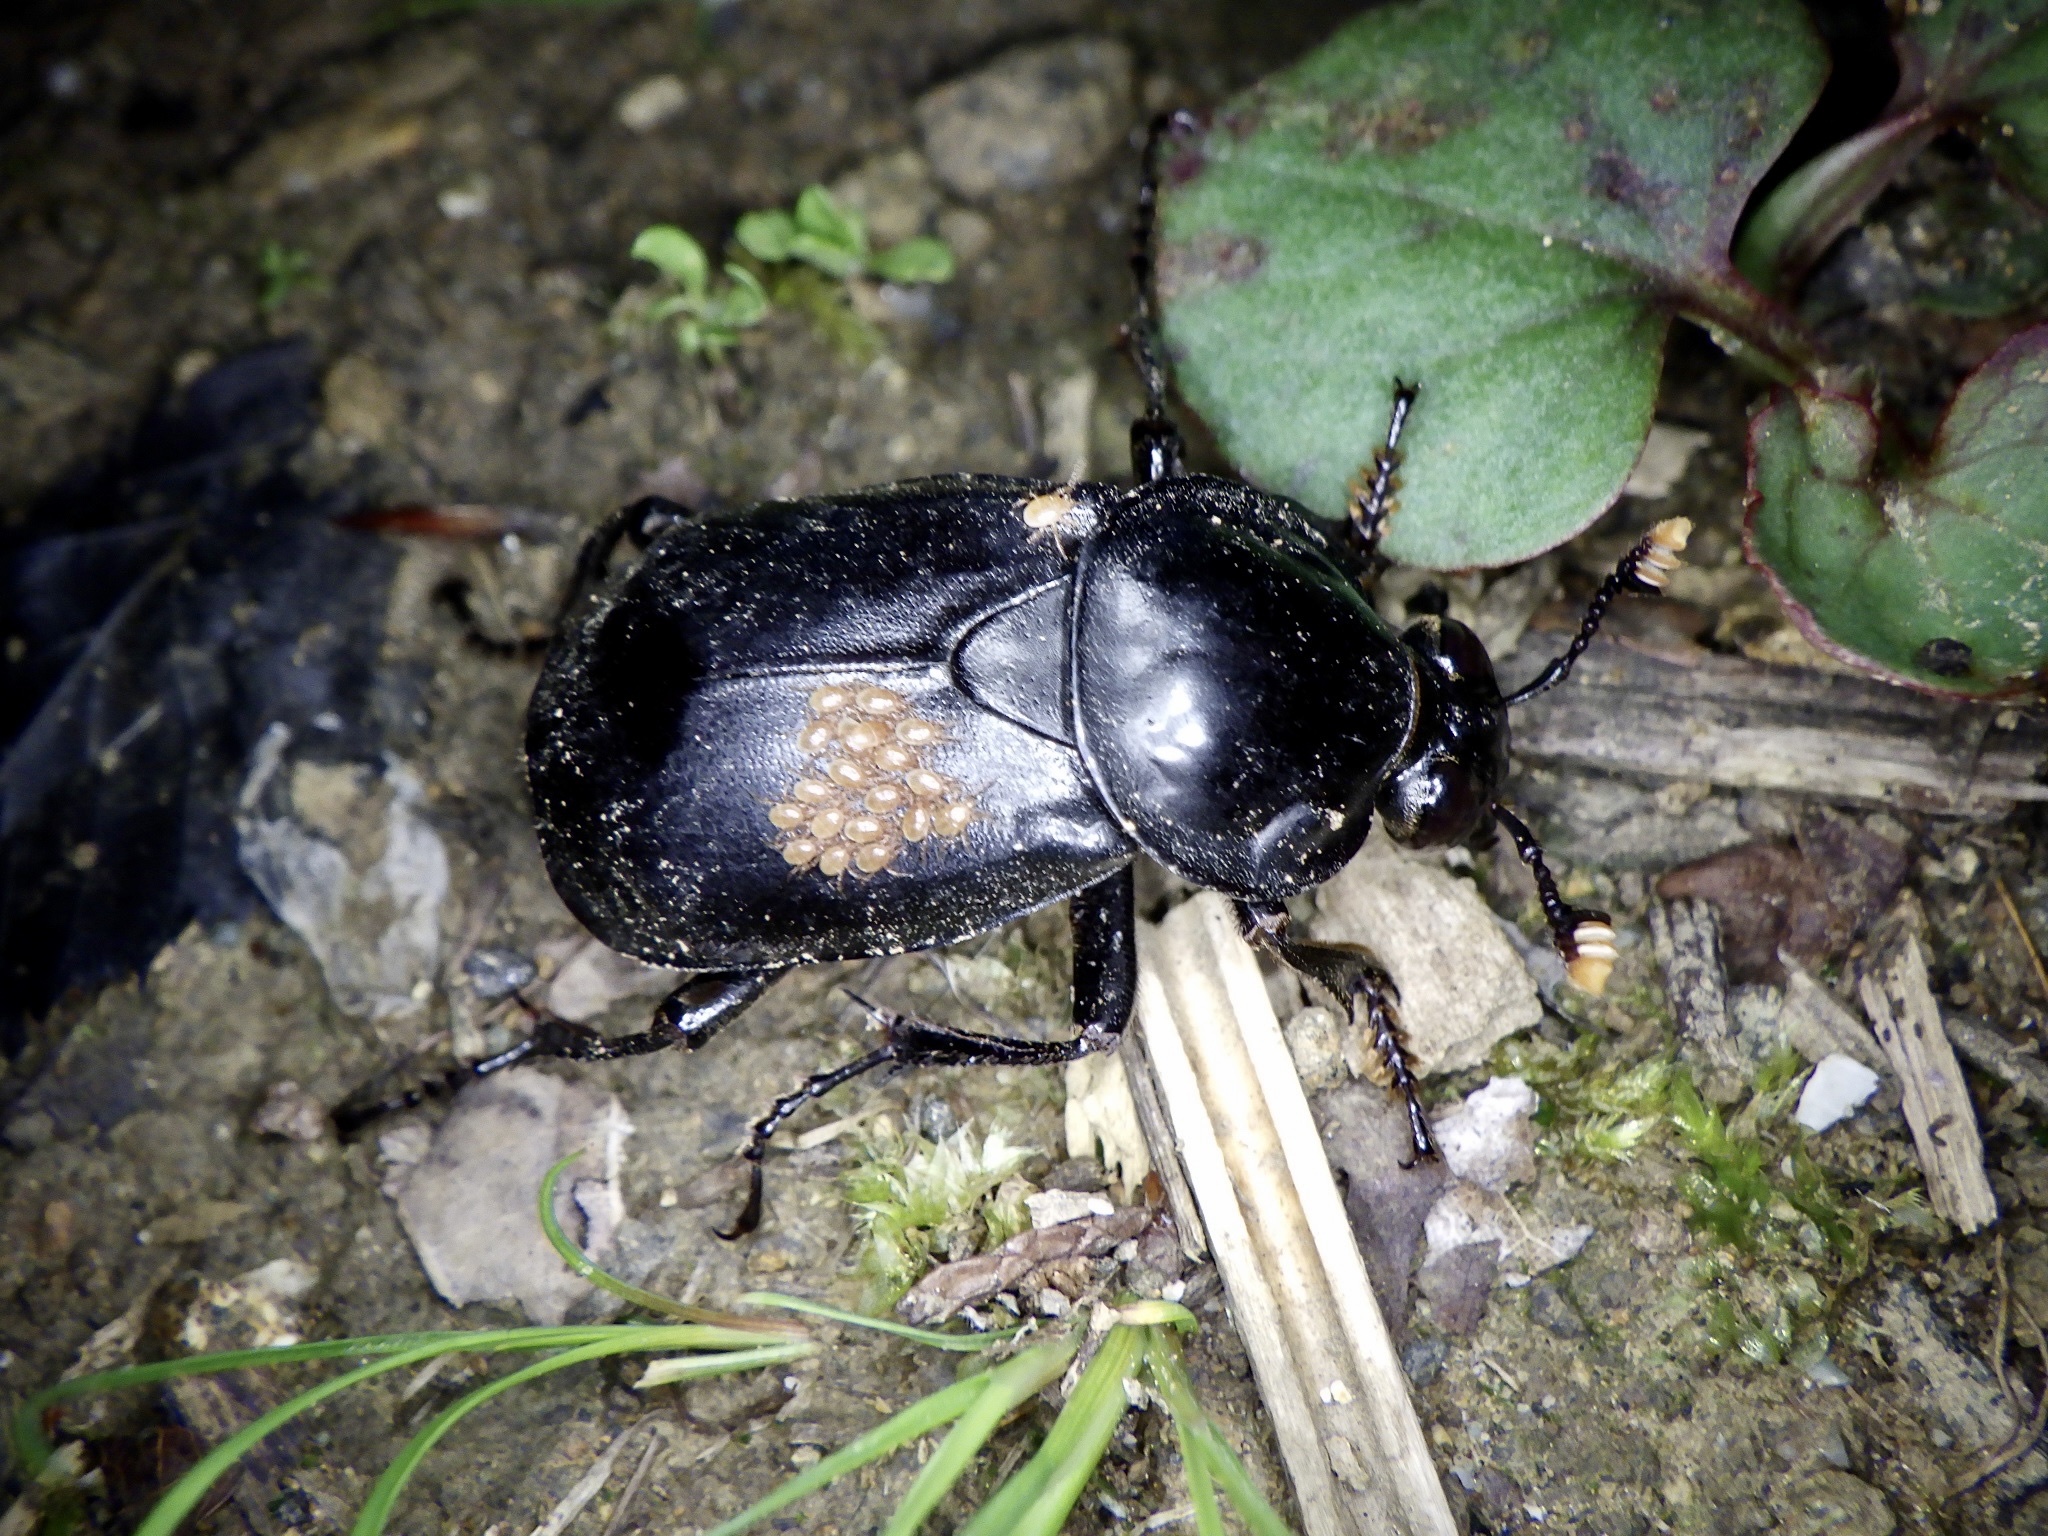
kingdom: Animalia
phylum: Arthropoda
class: Insecta
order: Coleoptera
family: Staphylinidae
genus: Nicrophorus
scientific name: Nicrophorus concolor
